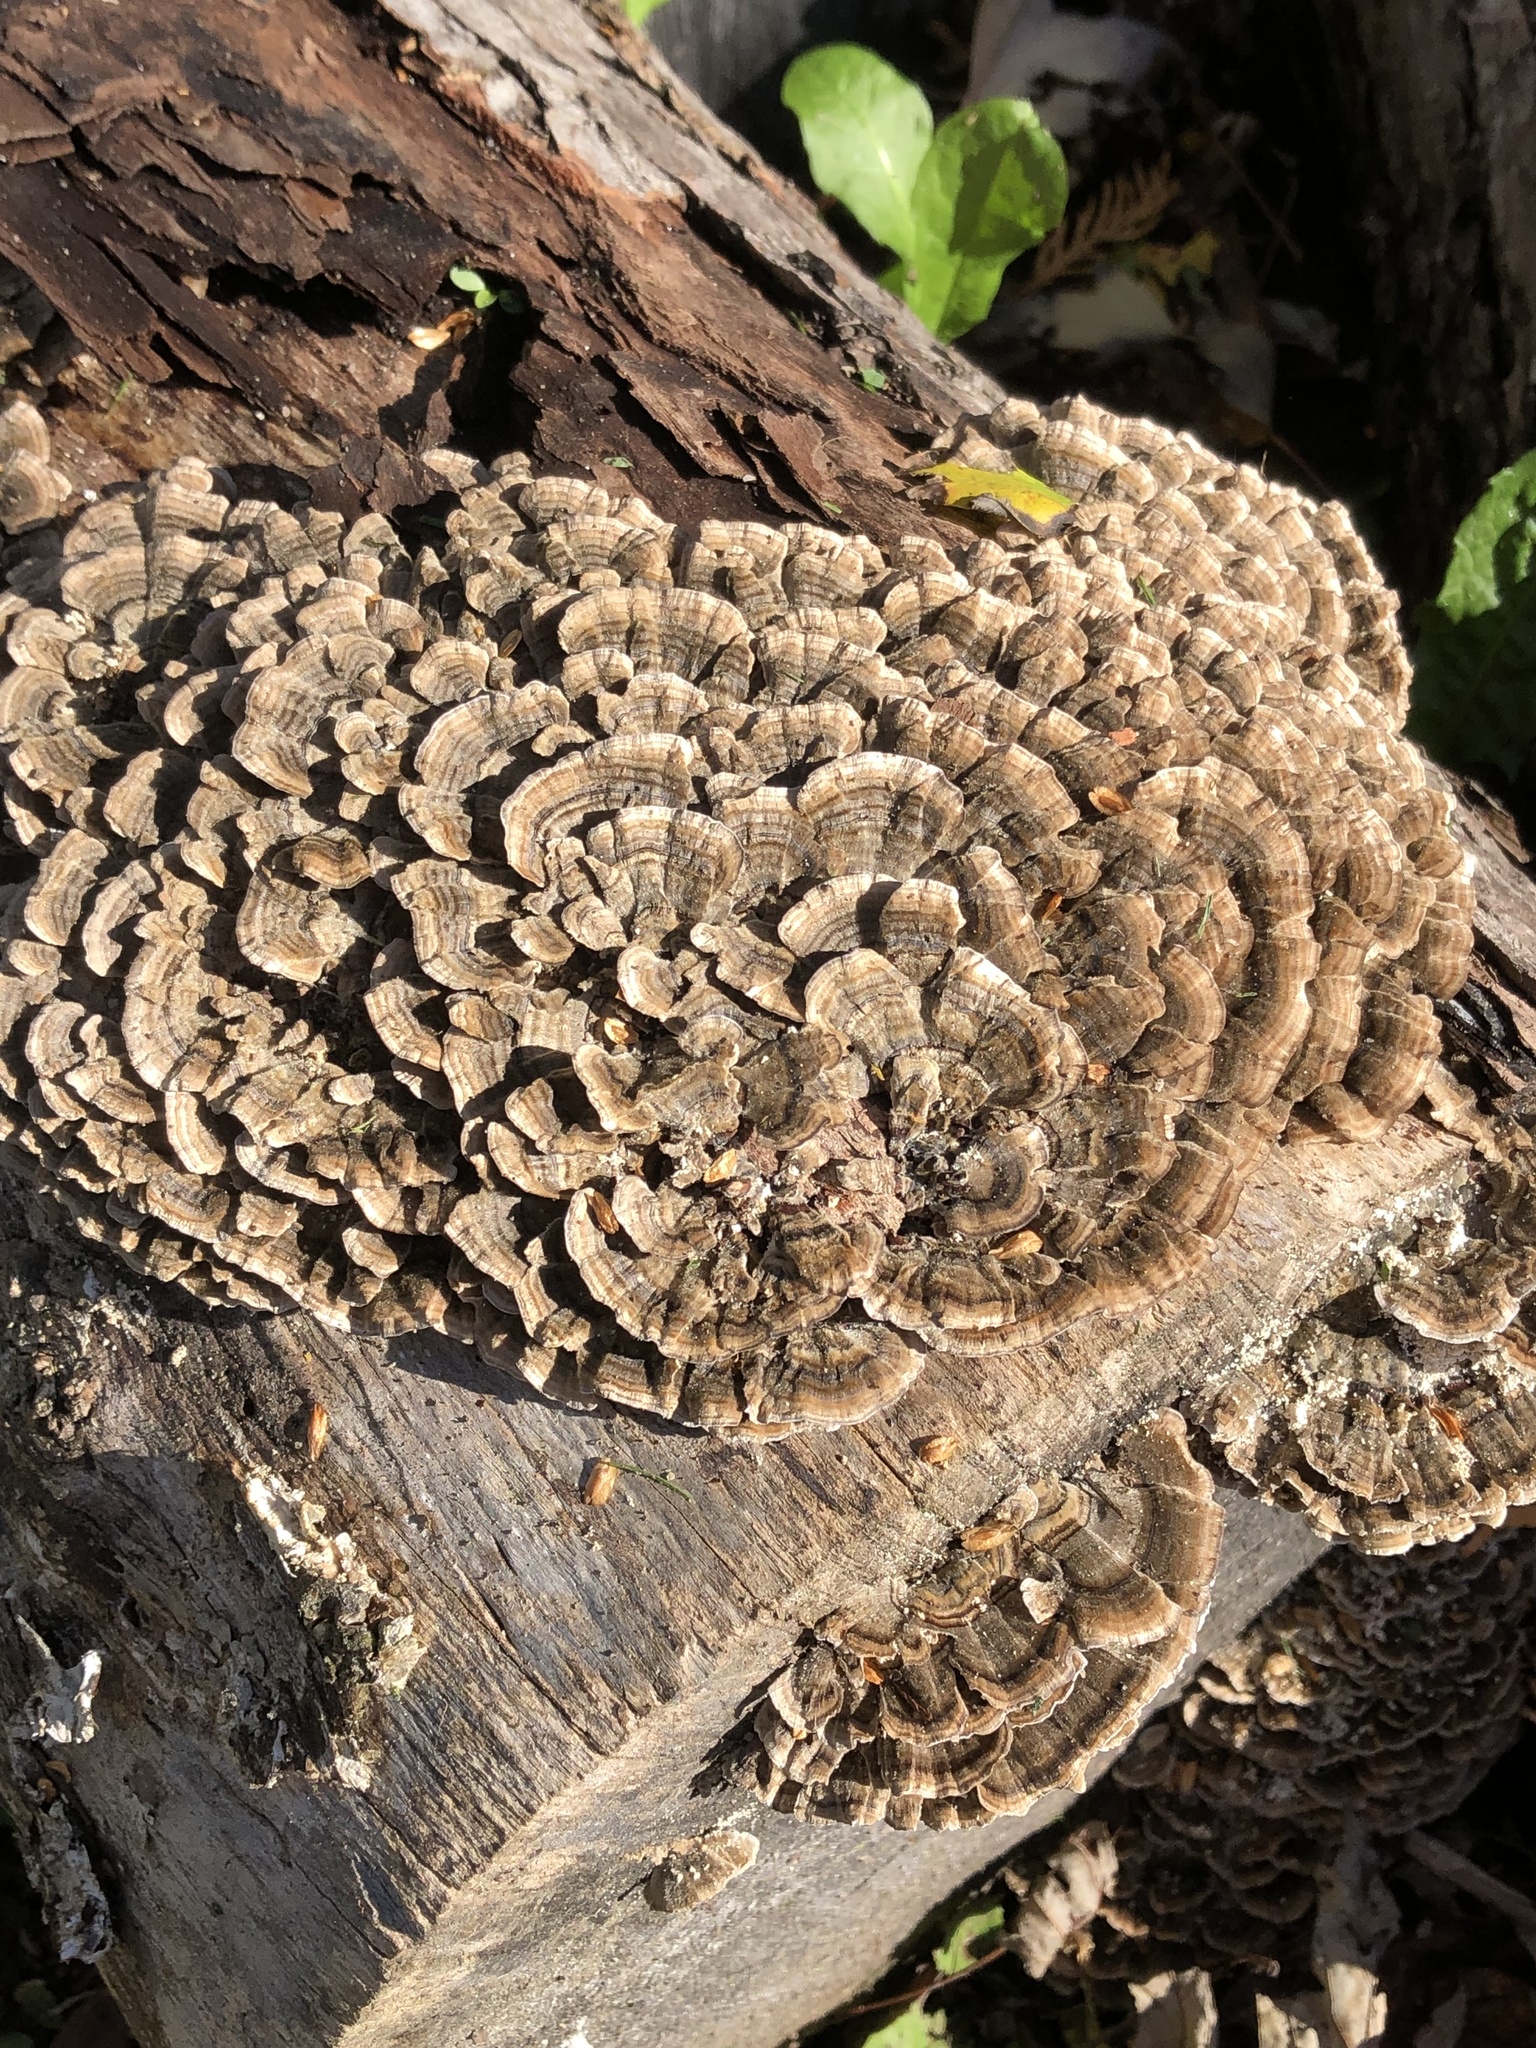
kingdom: Fungi
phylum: Basidiomycota
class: Agaricomycetes
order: Polyporales
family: Polyporaceae
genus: Trametes
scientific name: Trametes versicolor
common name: Turkeytail
